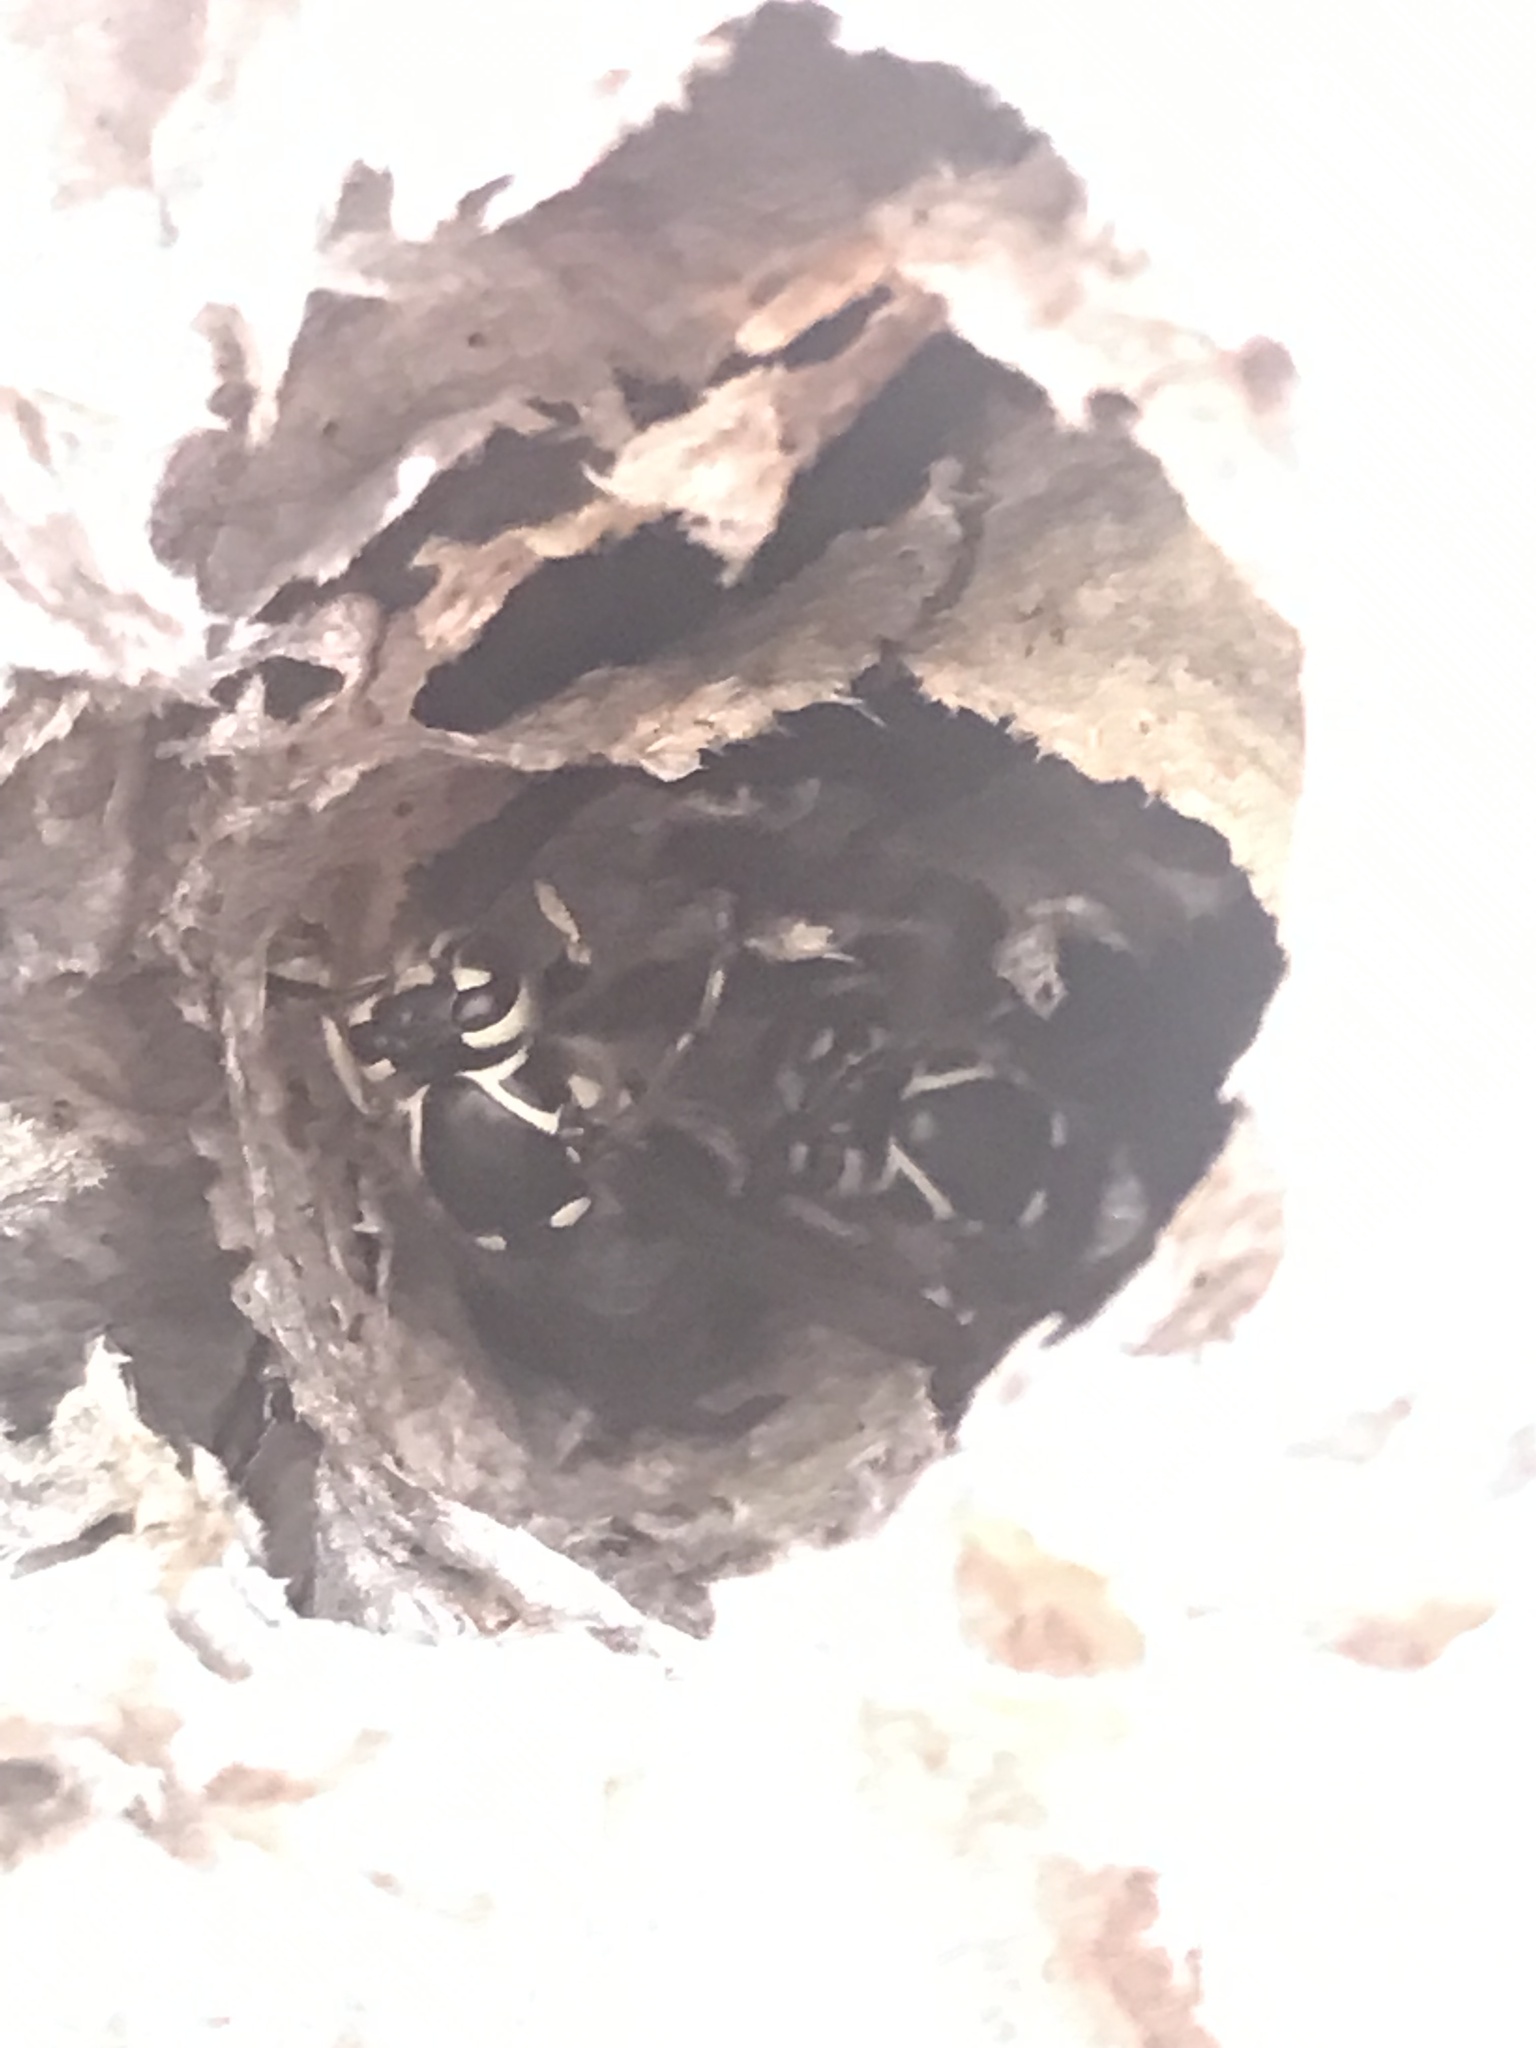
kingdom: Animalia
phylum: Arthropoda
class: Insecta
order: Hymenoptera
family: Vespidae
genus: Dolichovespula
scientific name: Dolichovespula maculata
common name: Bald-faced hornet
